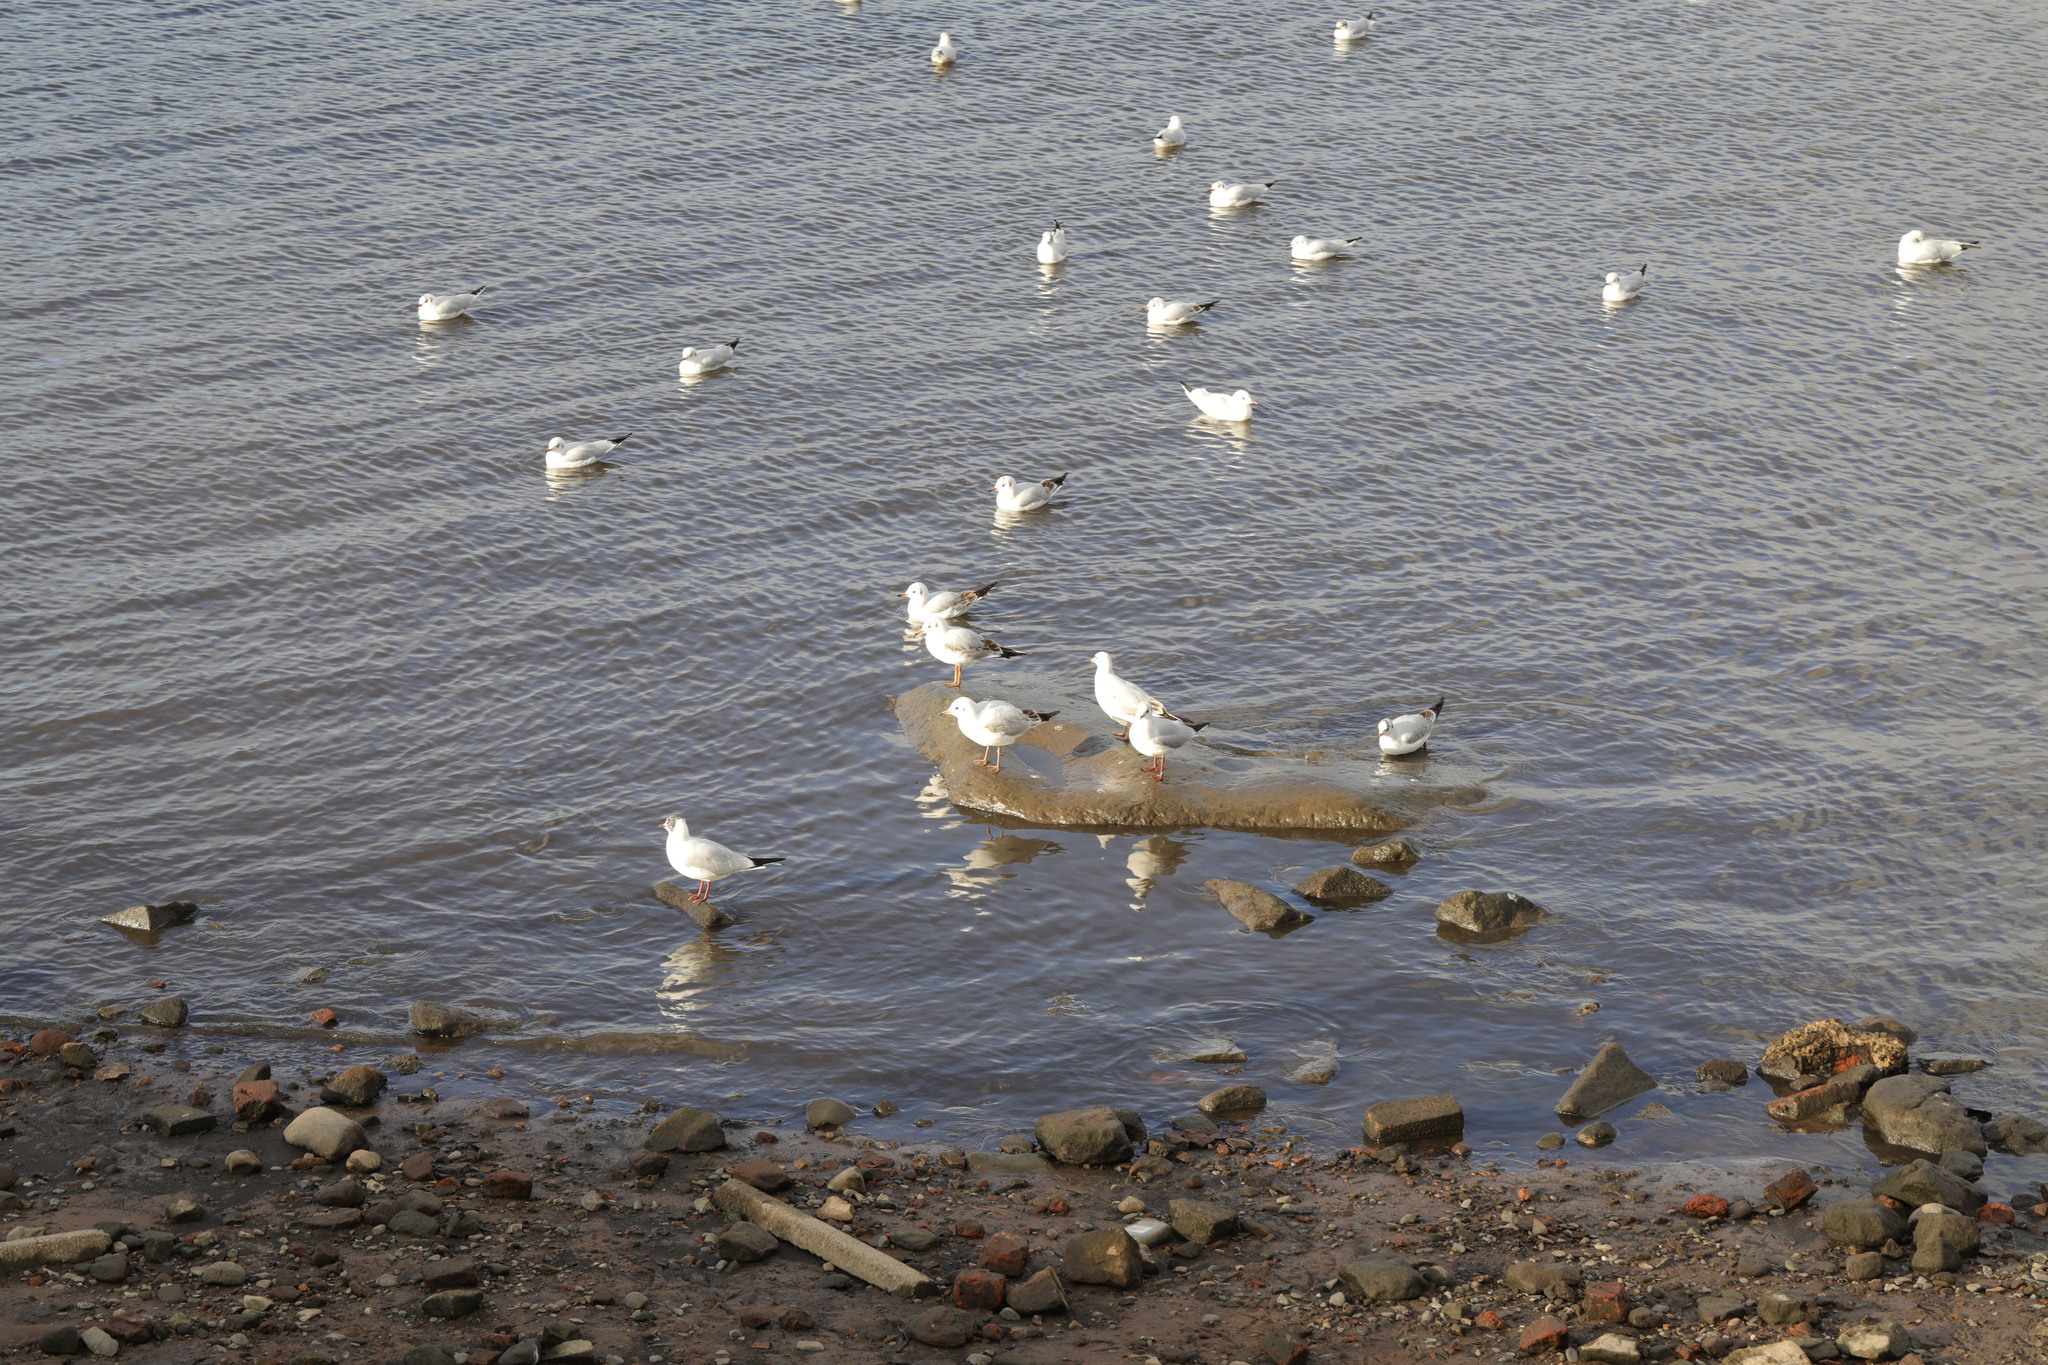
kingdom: Animalia
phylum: Chordata
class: Aves
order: Charadriiformes
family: Laridae
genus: Chroicocephalus
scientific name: Chroicocephalus ridibundus
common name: Black-headed gull
